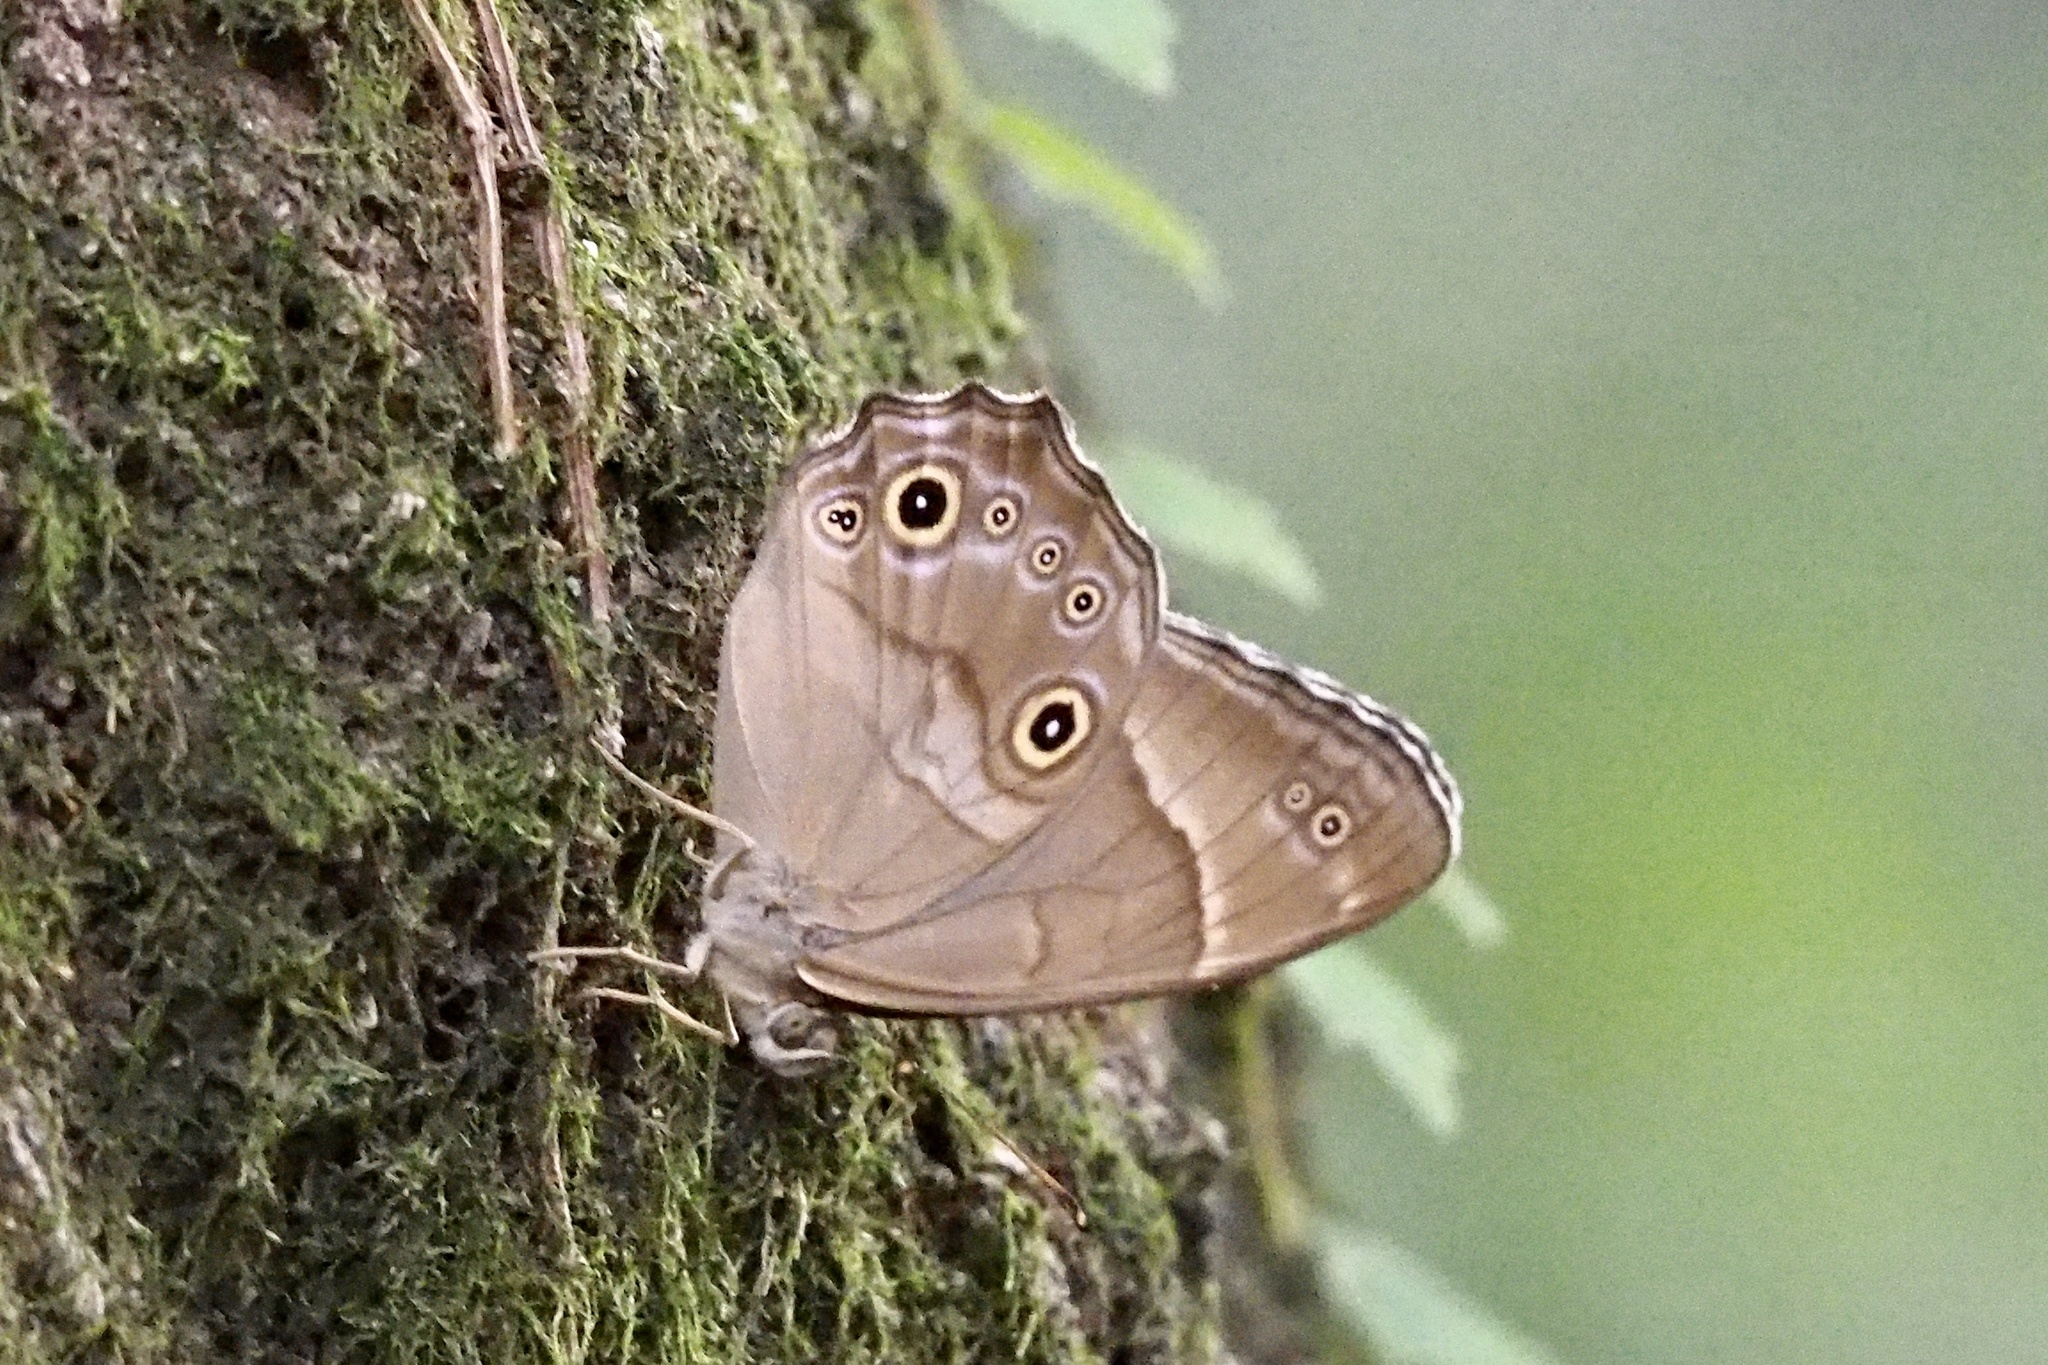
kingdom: Animalia
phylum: Arthropoda
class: Insecta
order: Lepidoptera
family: Nymphalidae
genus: Lethe
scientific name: Lethe sicelis
